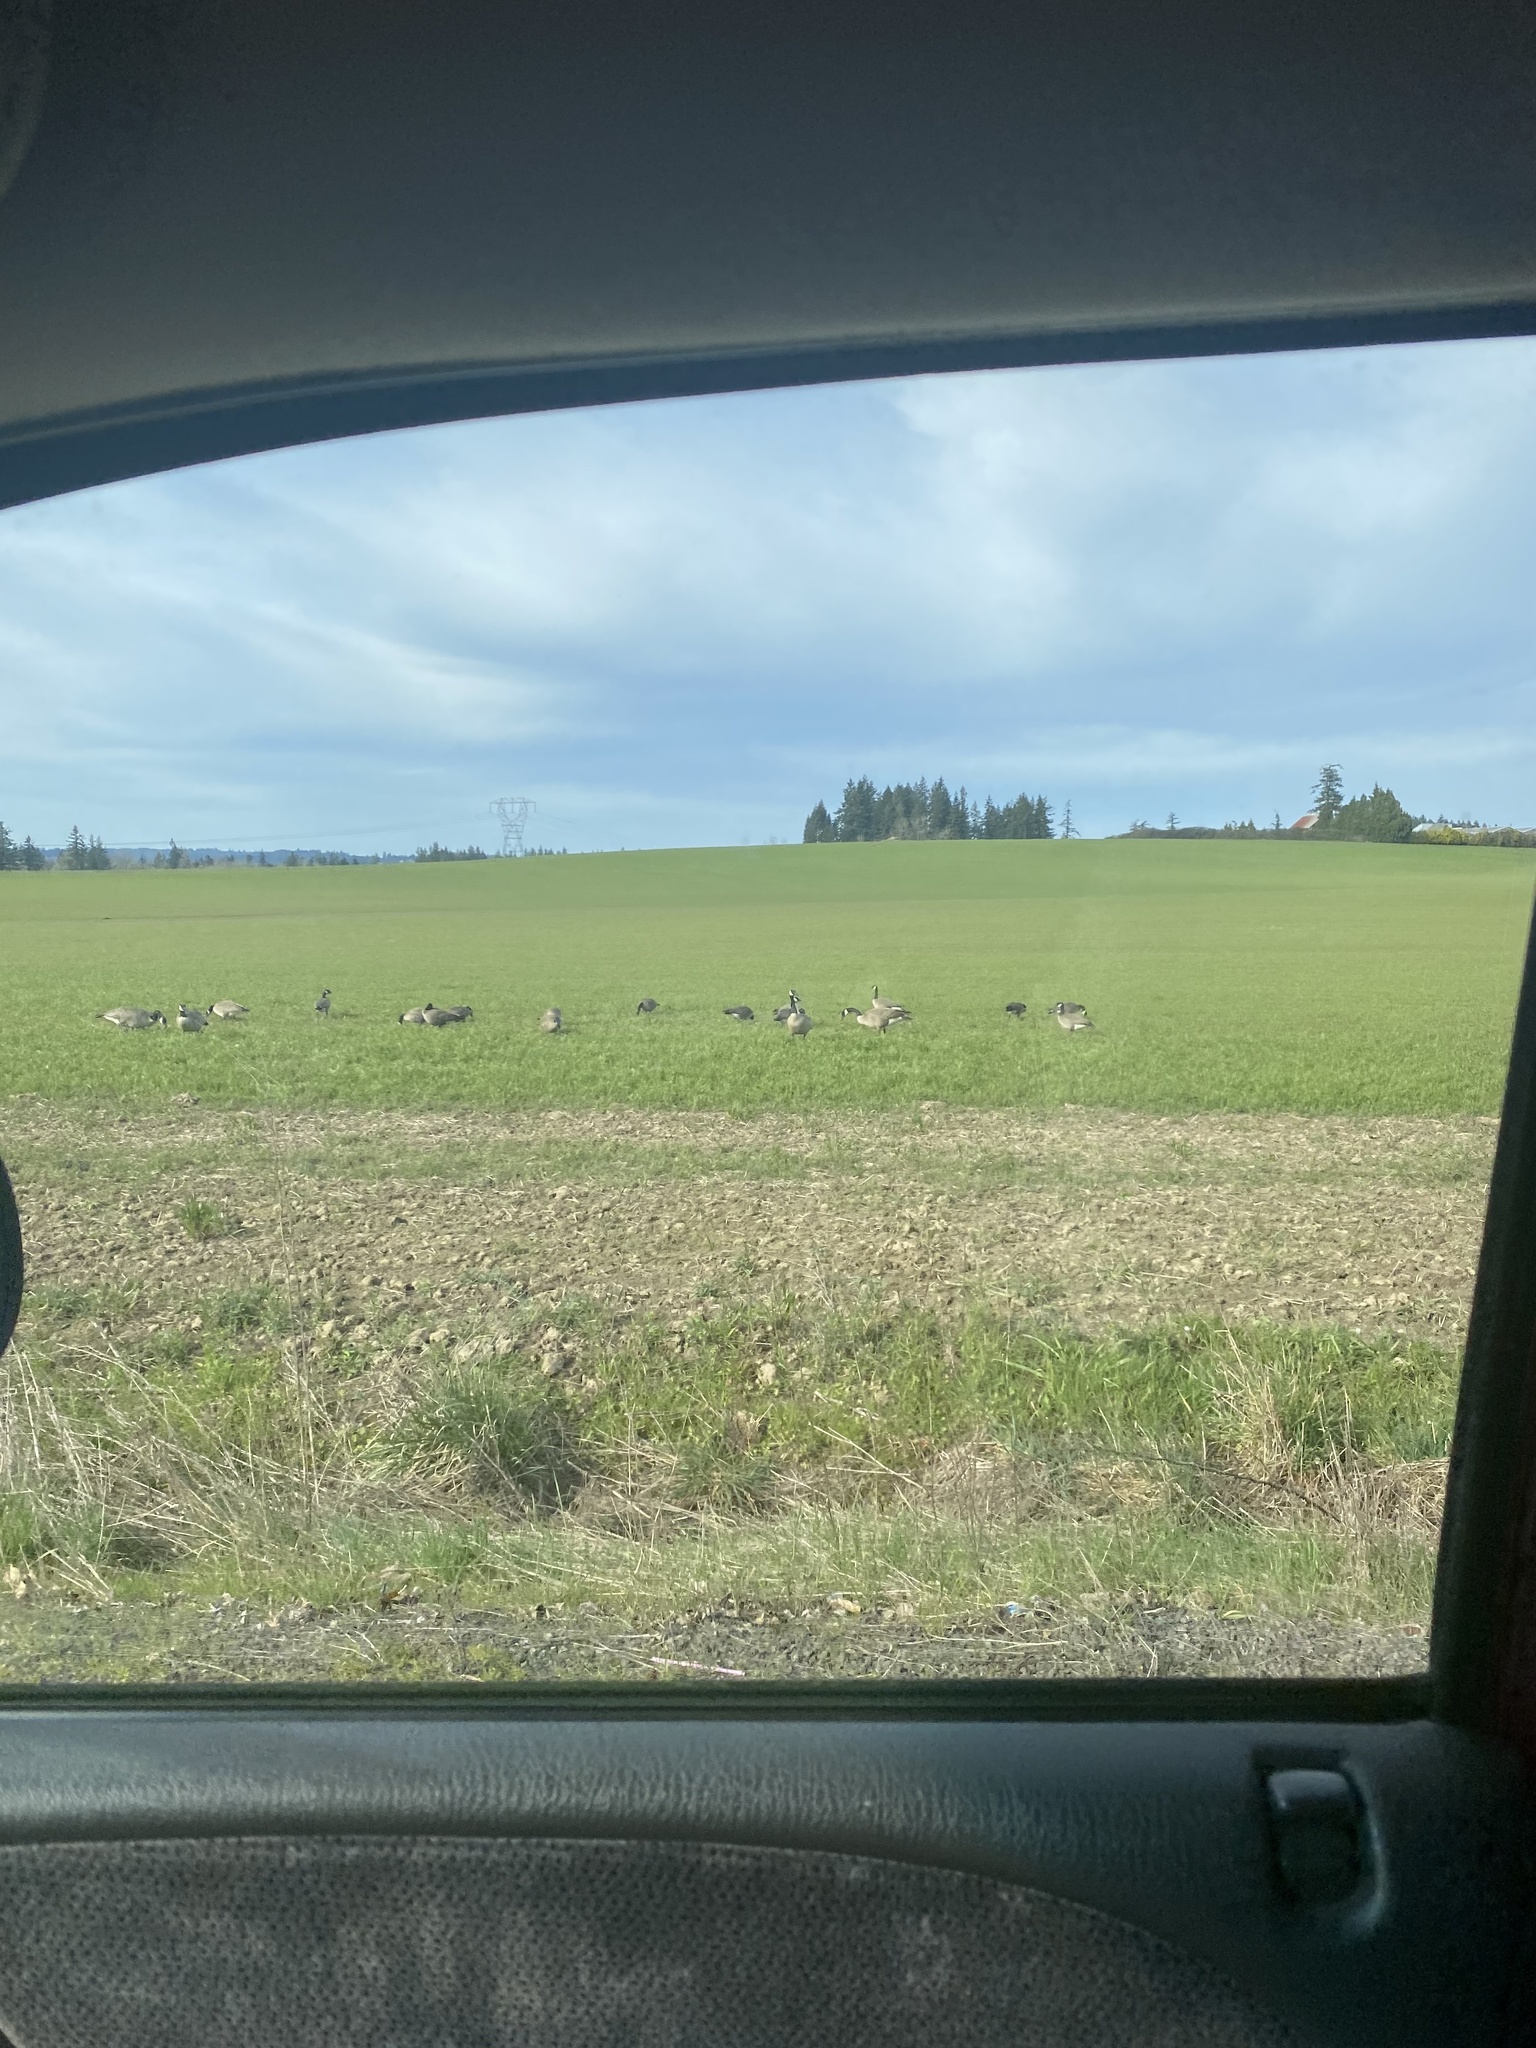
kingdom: Animalia
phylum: Chordata
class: Aves
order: Anseriformes
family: Anatidae
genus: Branta
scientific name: Branta canadensis
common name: Canada goose
